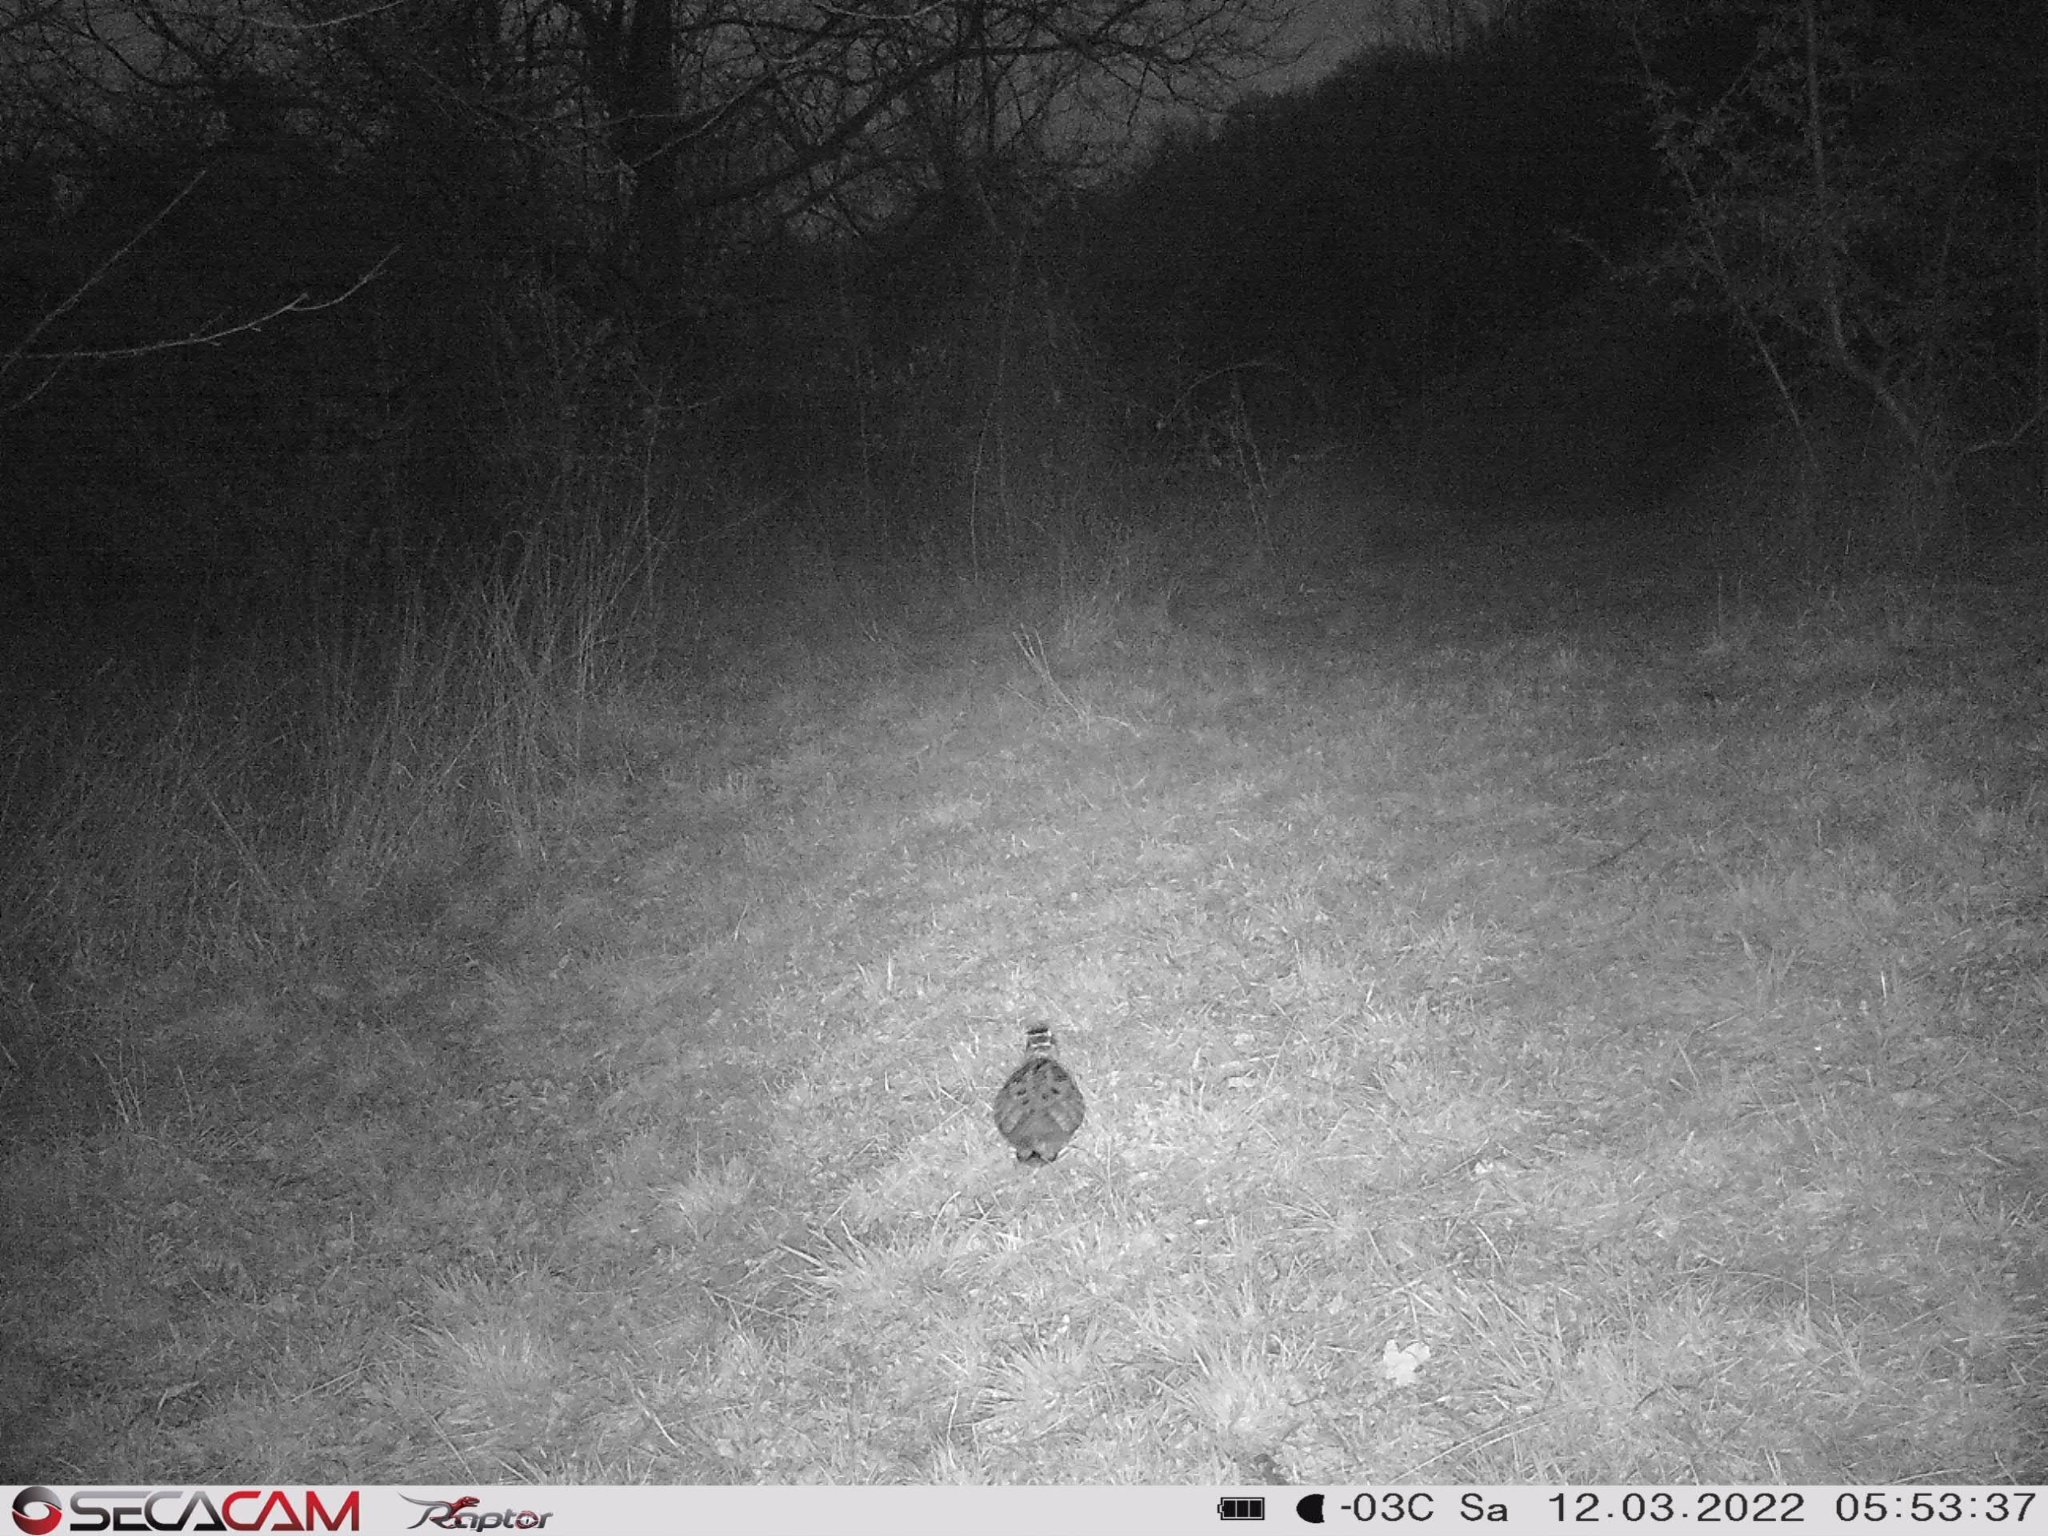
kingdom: Animalia
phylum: Chordata
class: Aves
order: Charadriiformes
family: Scolopacidae
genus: Scolopax
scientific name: Scolopax rusticola
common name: Eurasian woodcock
